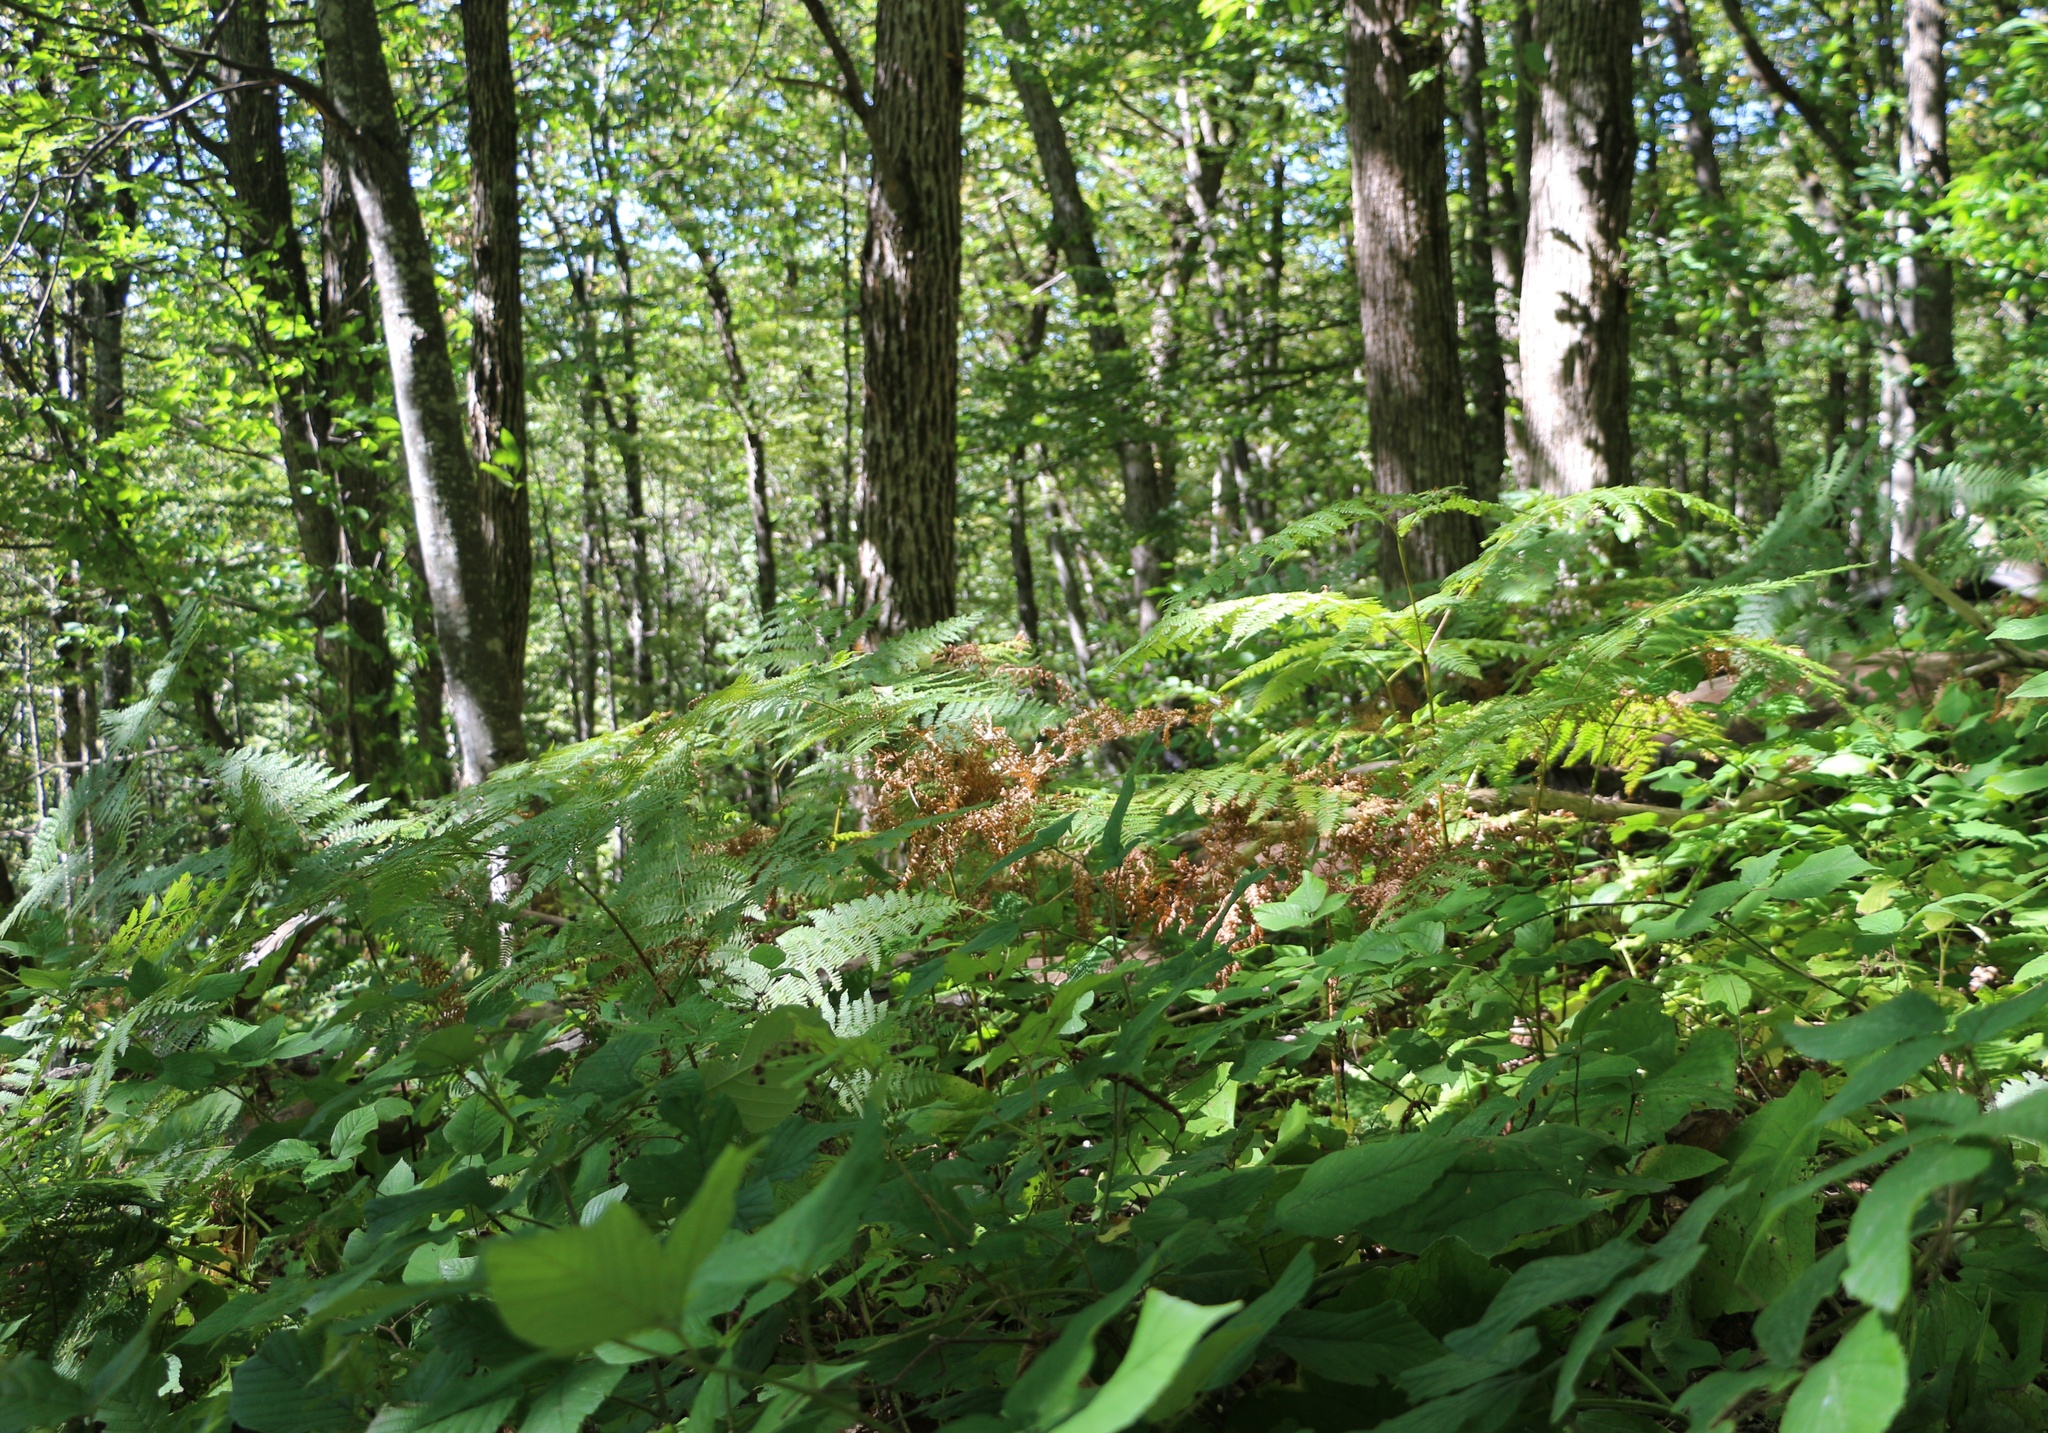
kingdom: Plantae
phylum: Tracheophyta
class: Polypodiopsida
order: Polypodiales
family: Dennstaedtiaceae
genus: Pteridium
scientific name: Pteridium tauricum
